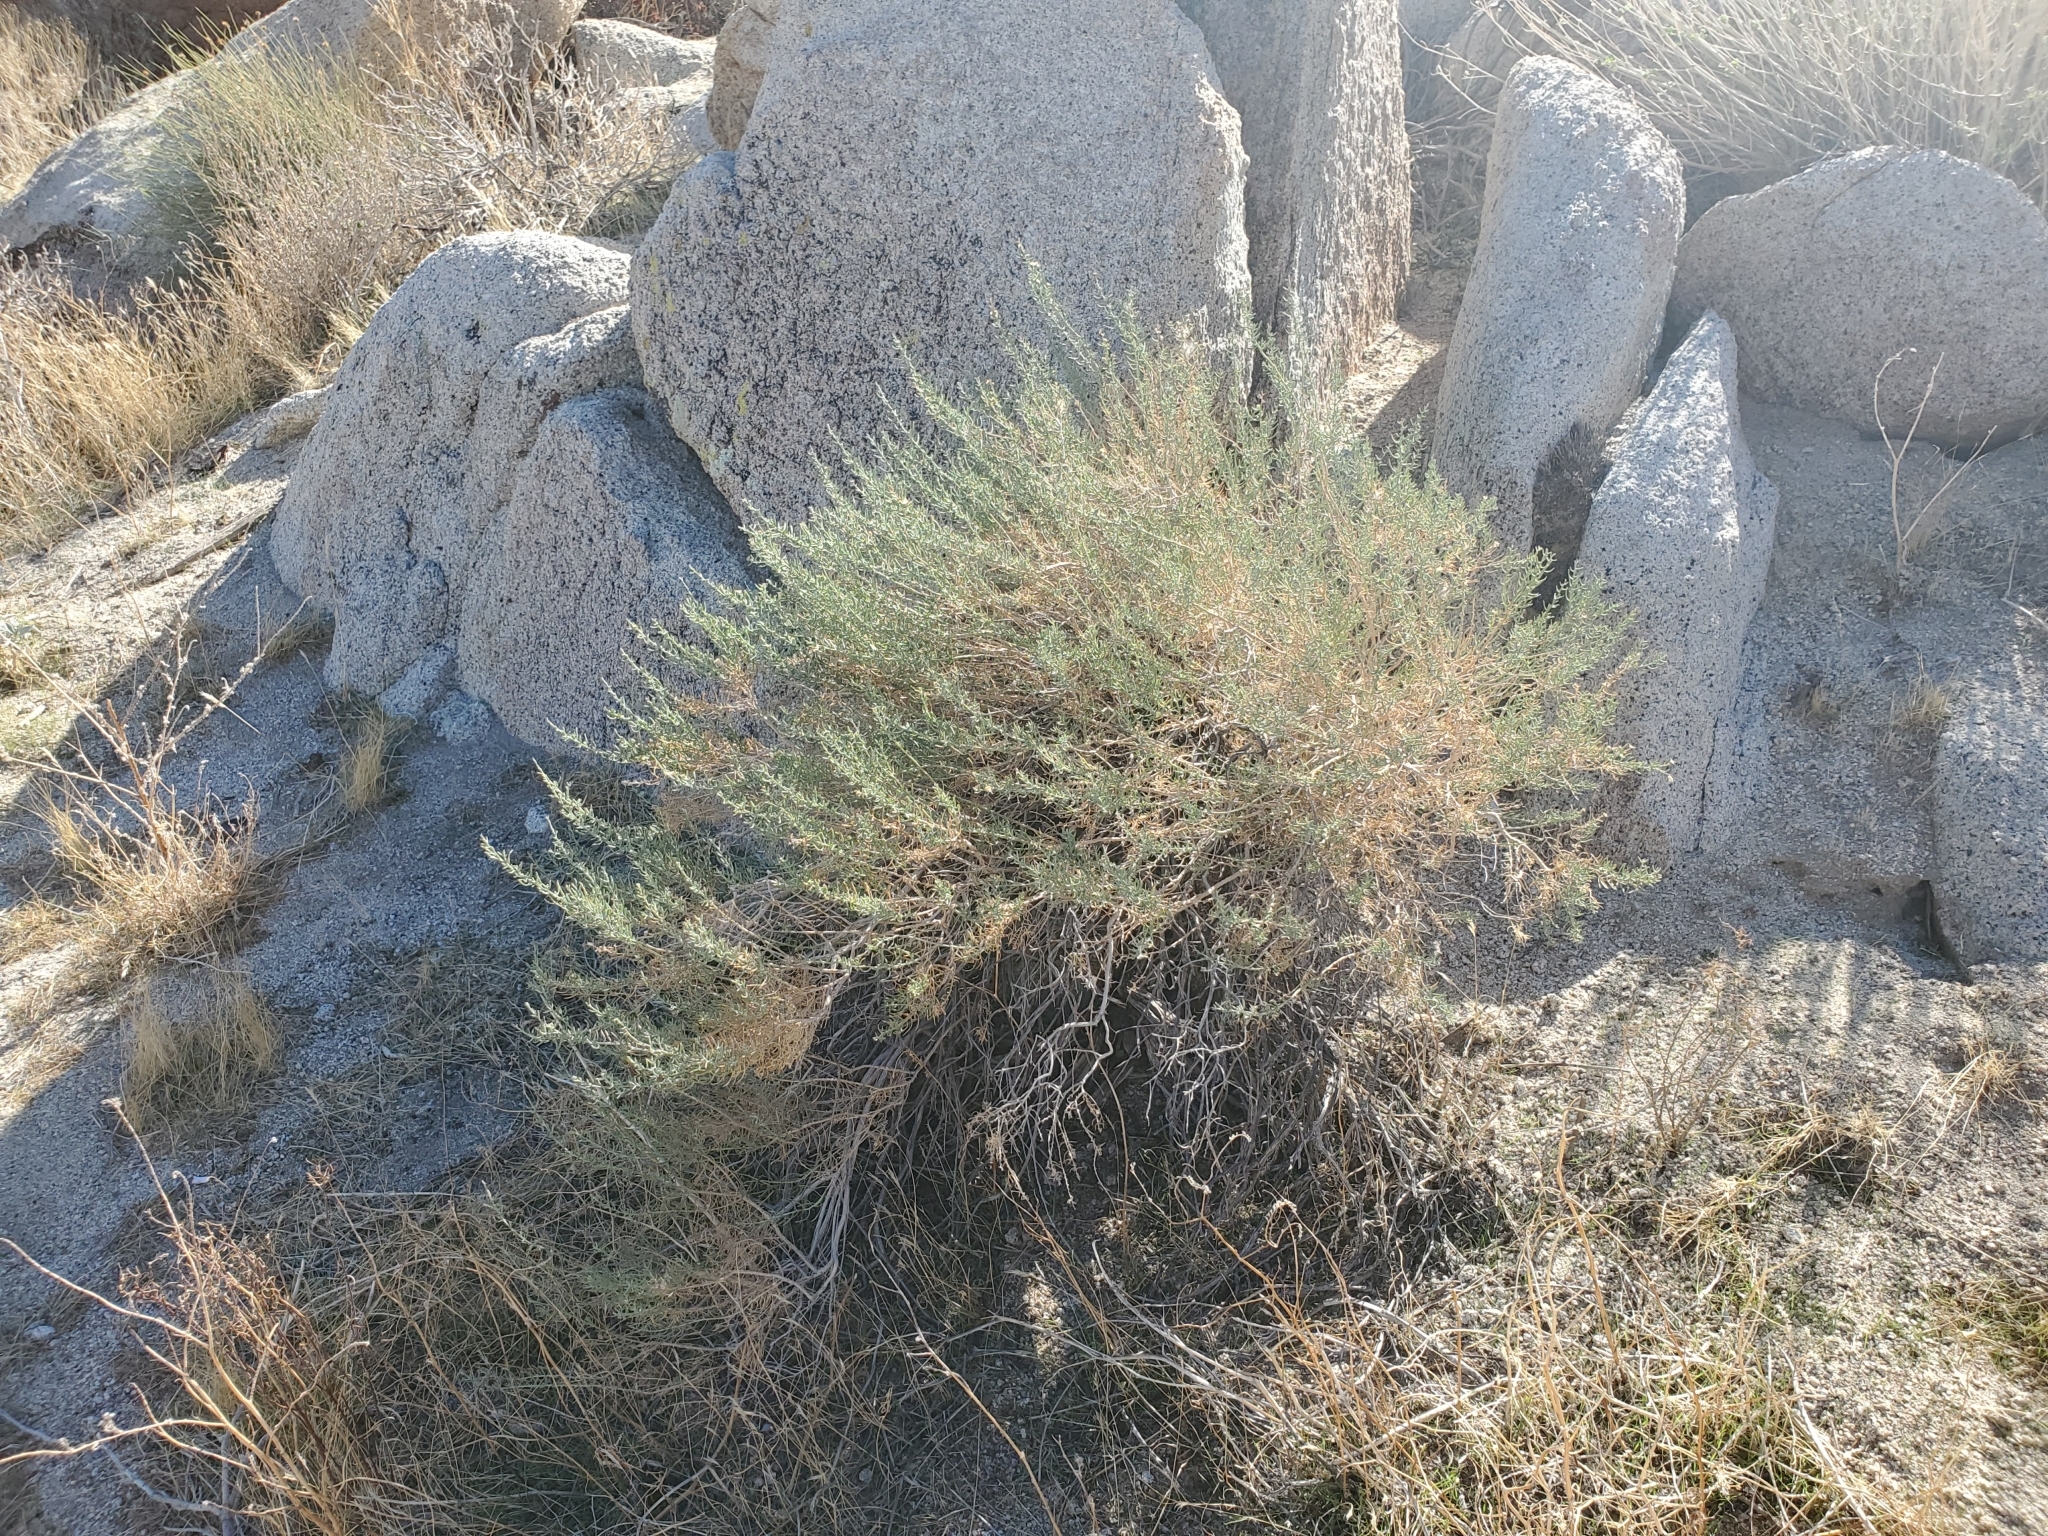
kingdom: Plantae
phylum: Tracheophyta
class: Magnoliopsida
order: Asterales
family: Asteraceae
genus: Ericameria
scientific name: Ericameria brachylepis
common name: Boundary goldenbush
